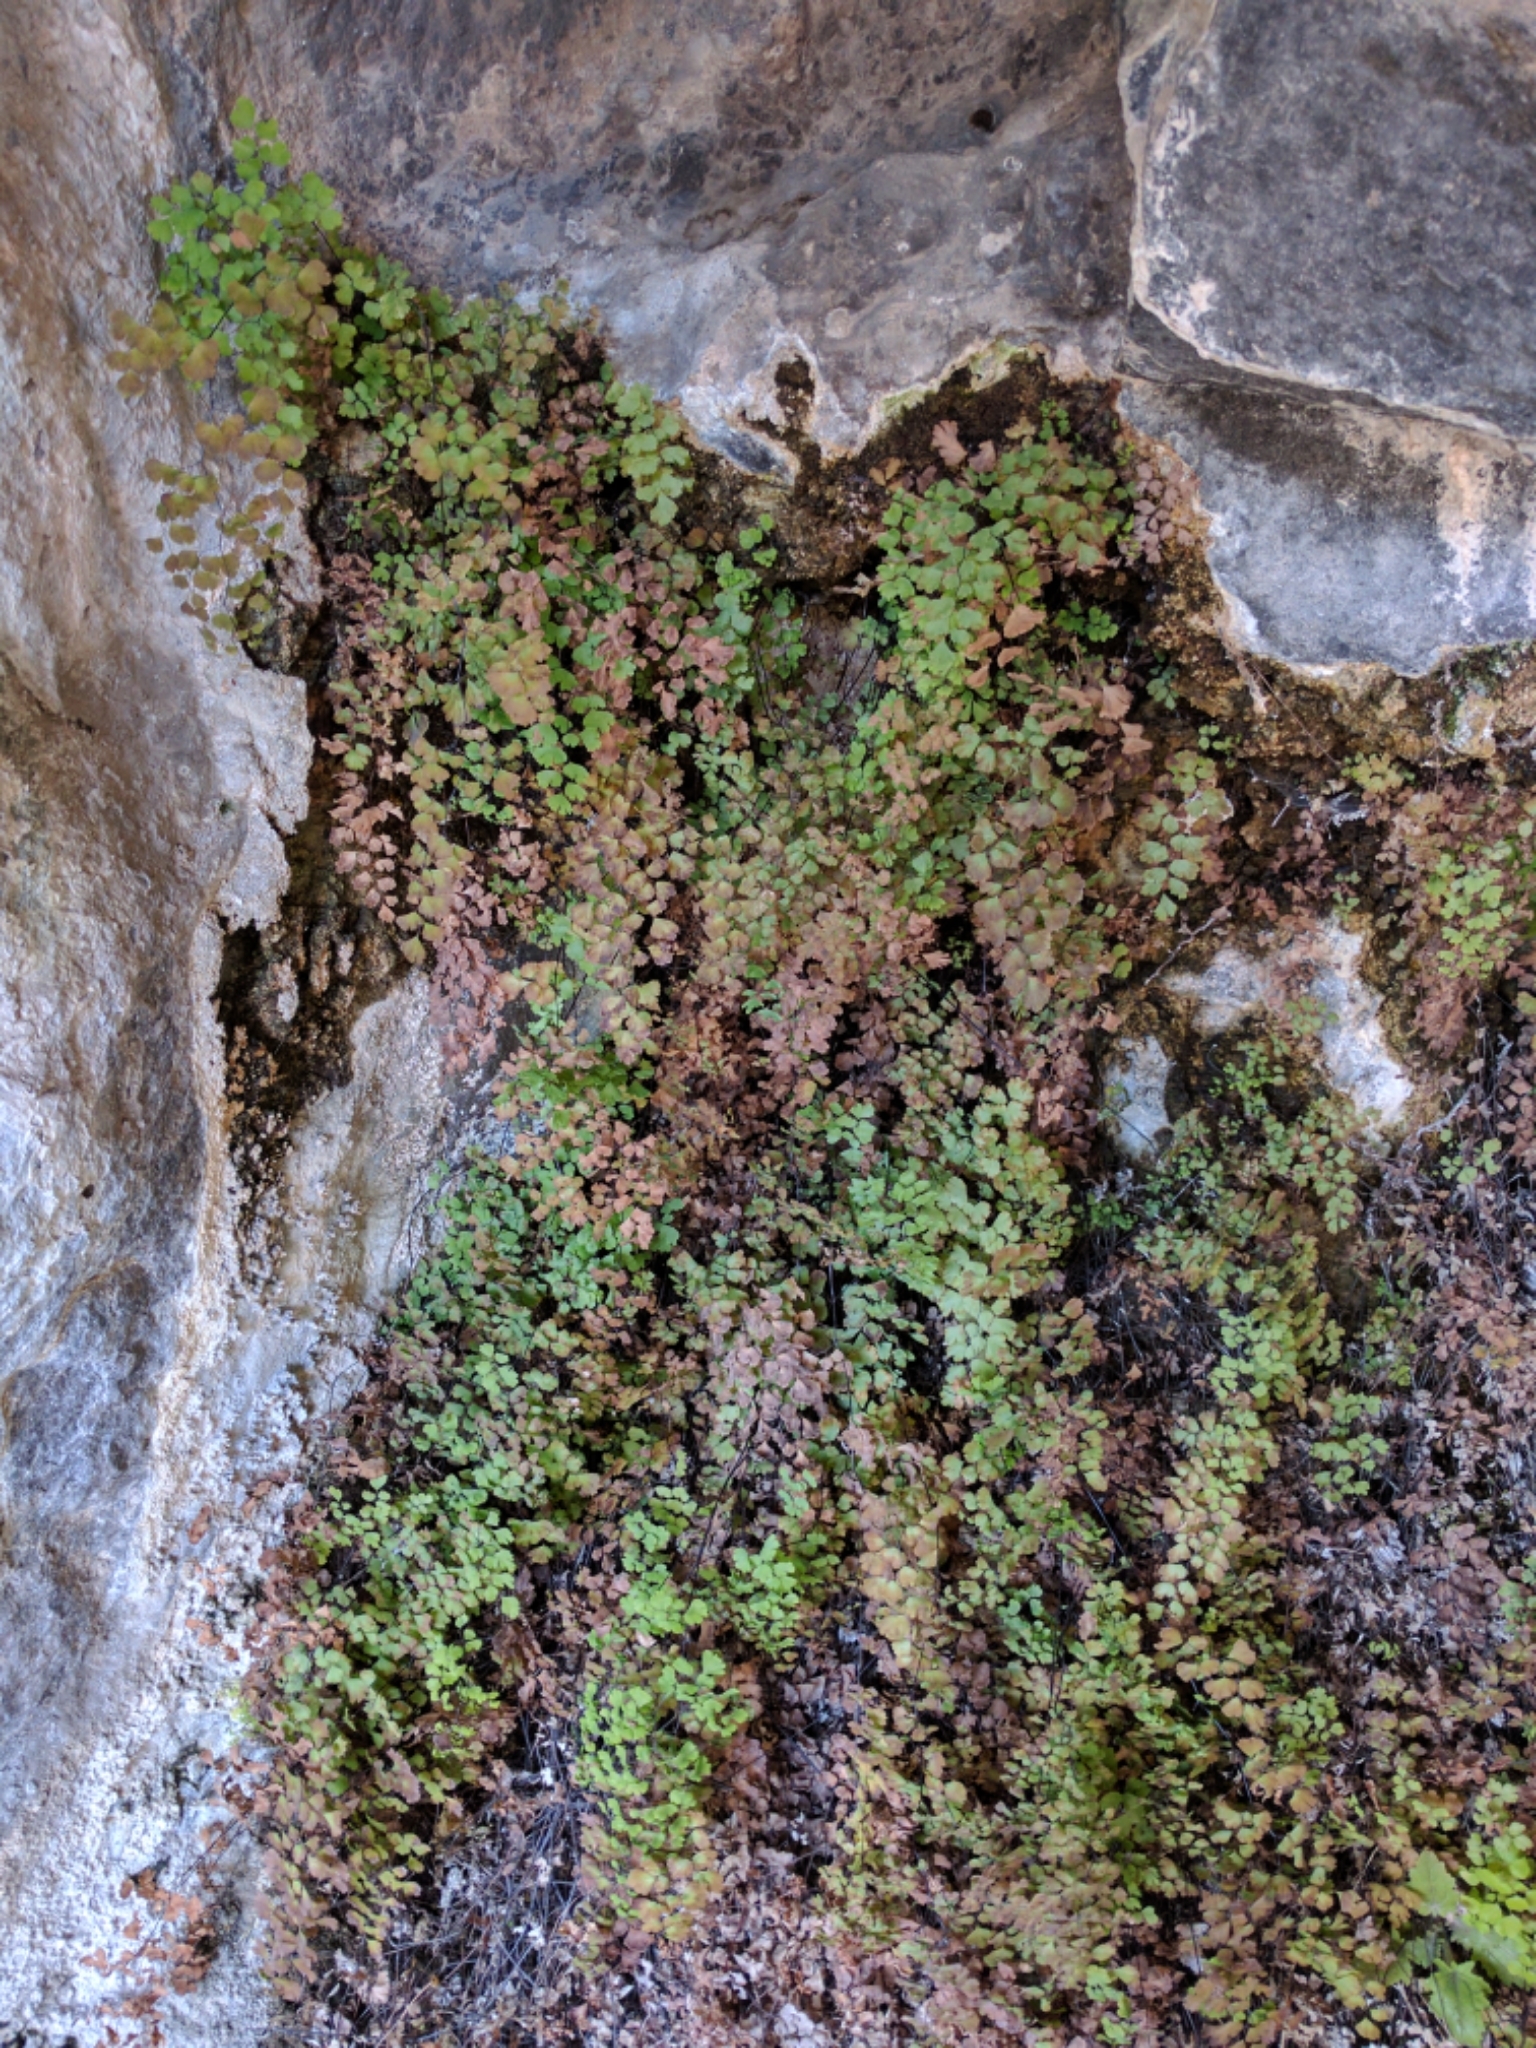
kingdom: Plantae
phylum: Tracheophyta
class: Polypodiopsida
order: Polypodiales
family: Pteridaceae
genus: Adiantum
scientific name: Adiantum capillus-veneris
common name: Maidenhair fern
